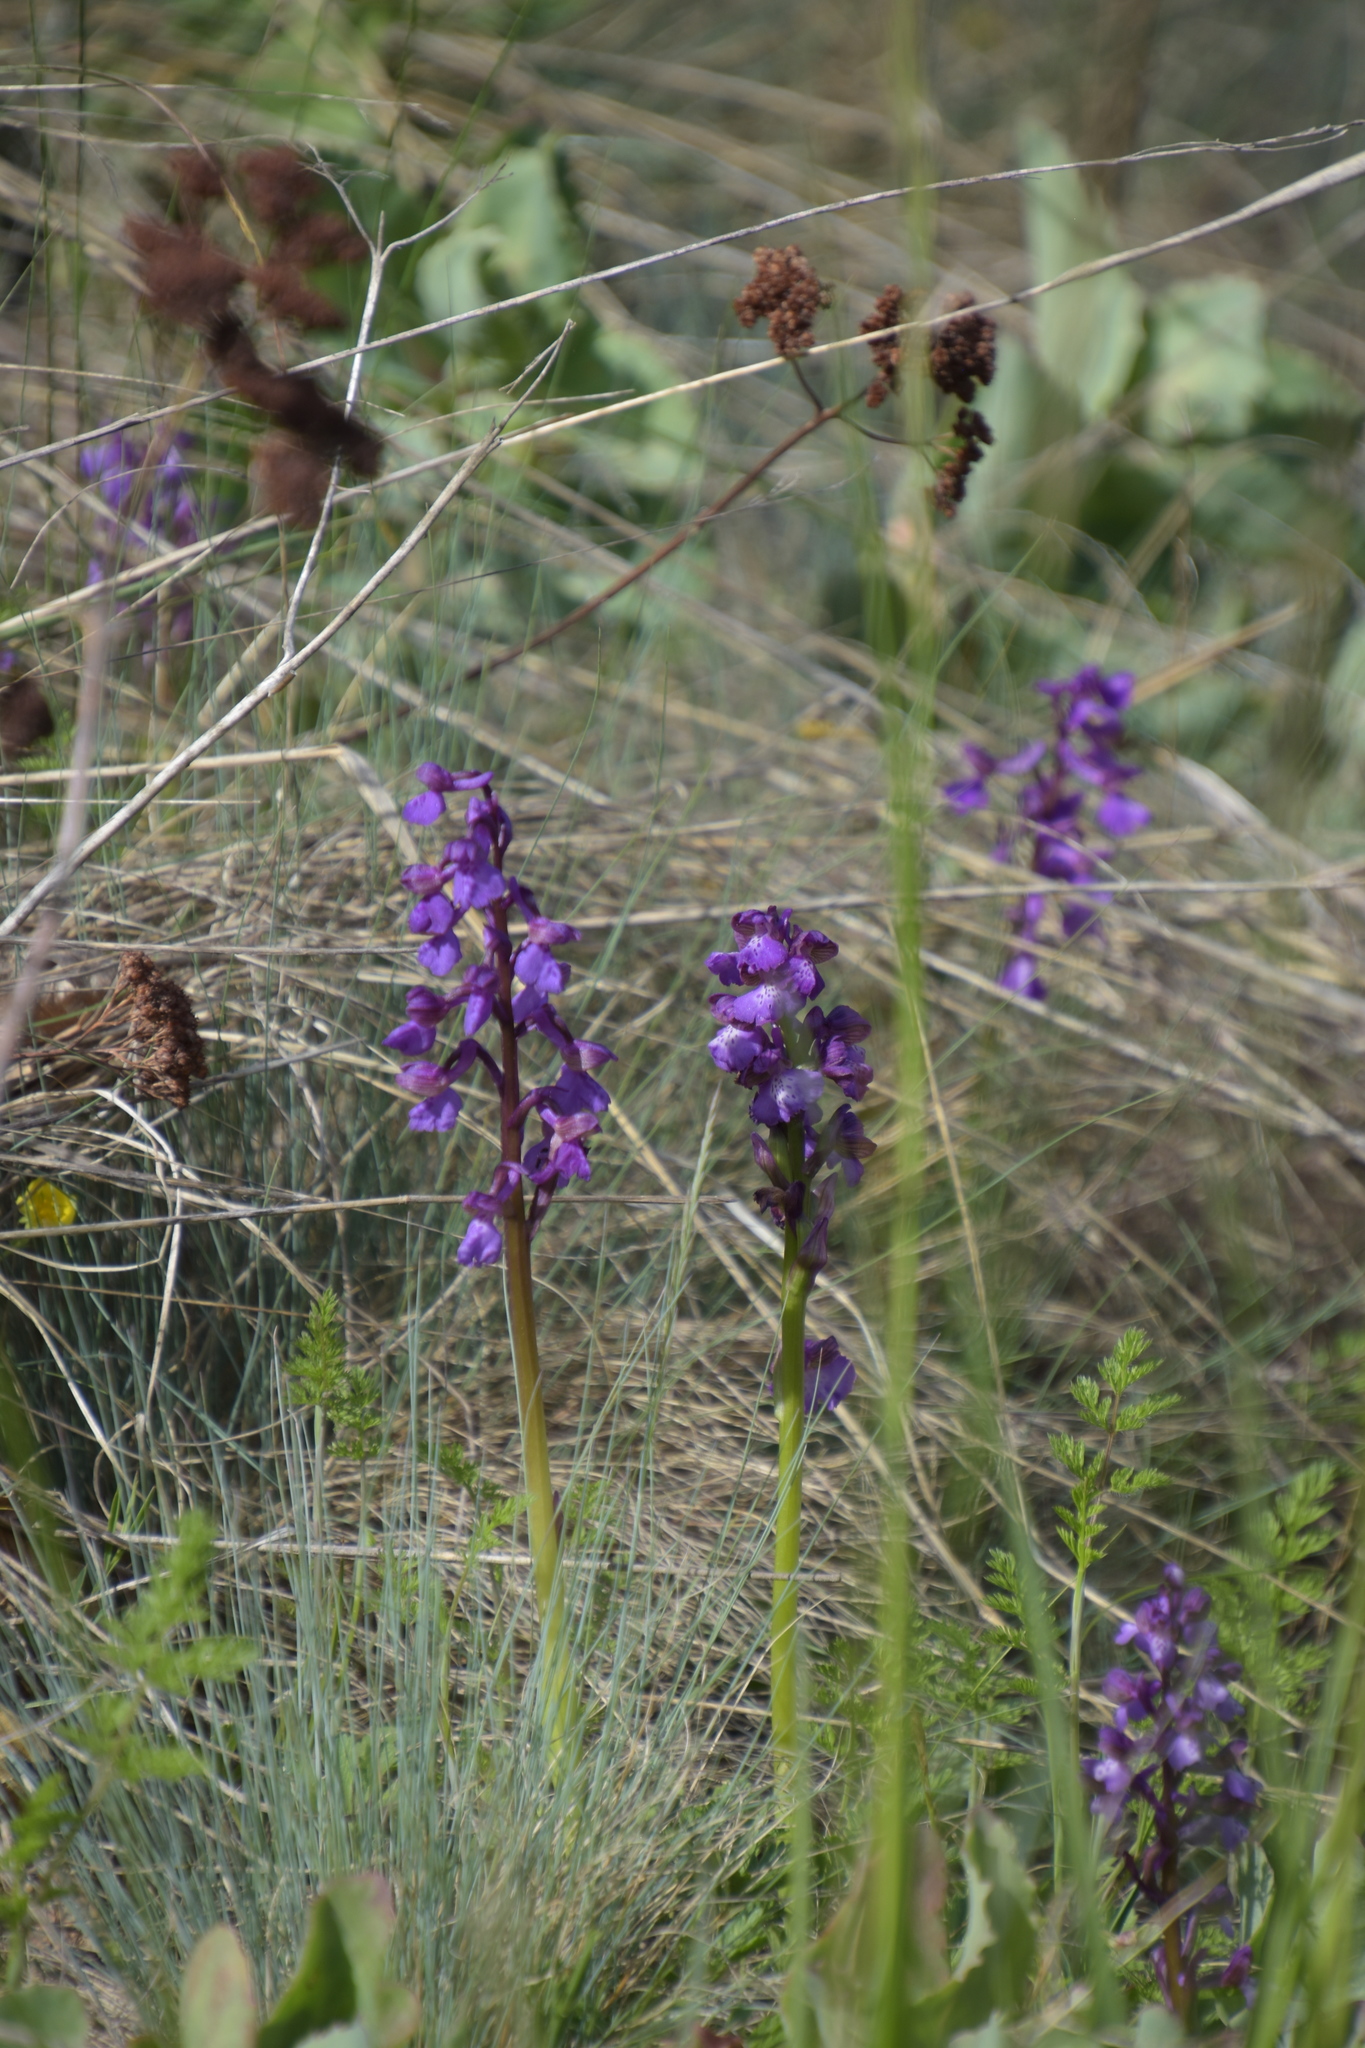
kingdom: Plantae
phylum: Tracheophyta
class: Liliopsida
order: Asparagales
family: Orchidaceae
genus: Anacamptis
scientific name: Anacamptis morio
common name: Green-winged orchid
